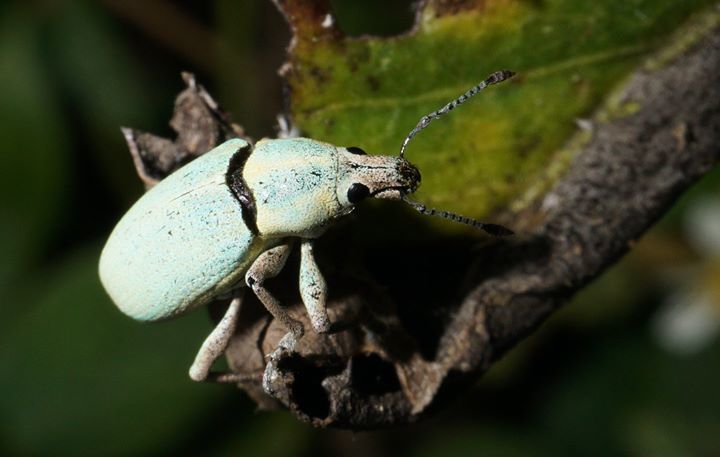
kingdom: Animalia
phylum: Arthropoda
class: Insecta
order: Coleoptera
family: Curculionidae
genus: Pachnaeus
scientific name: Pachnaeus litus
